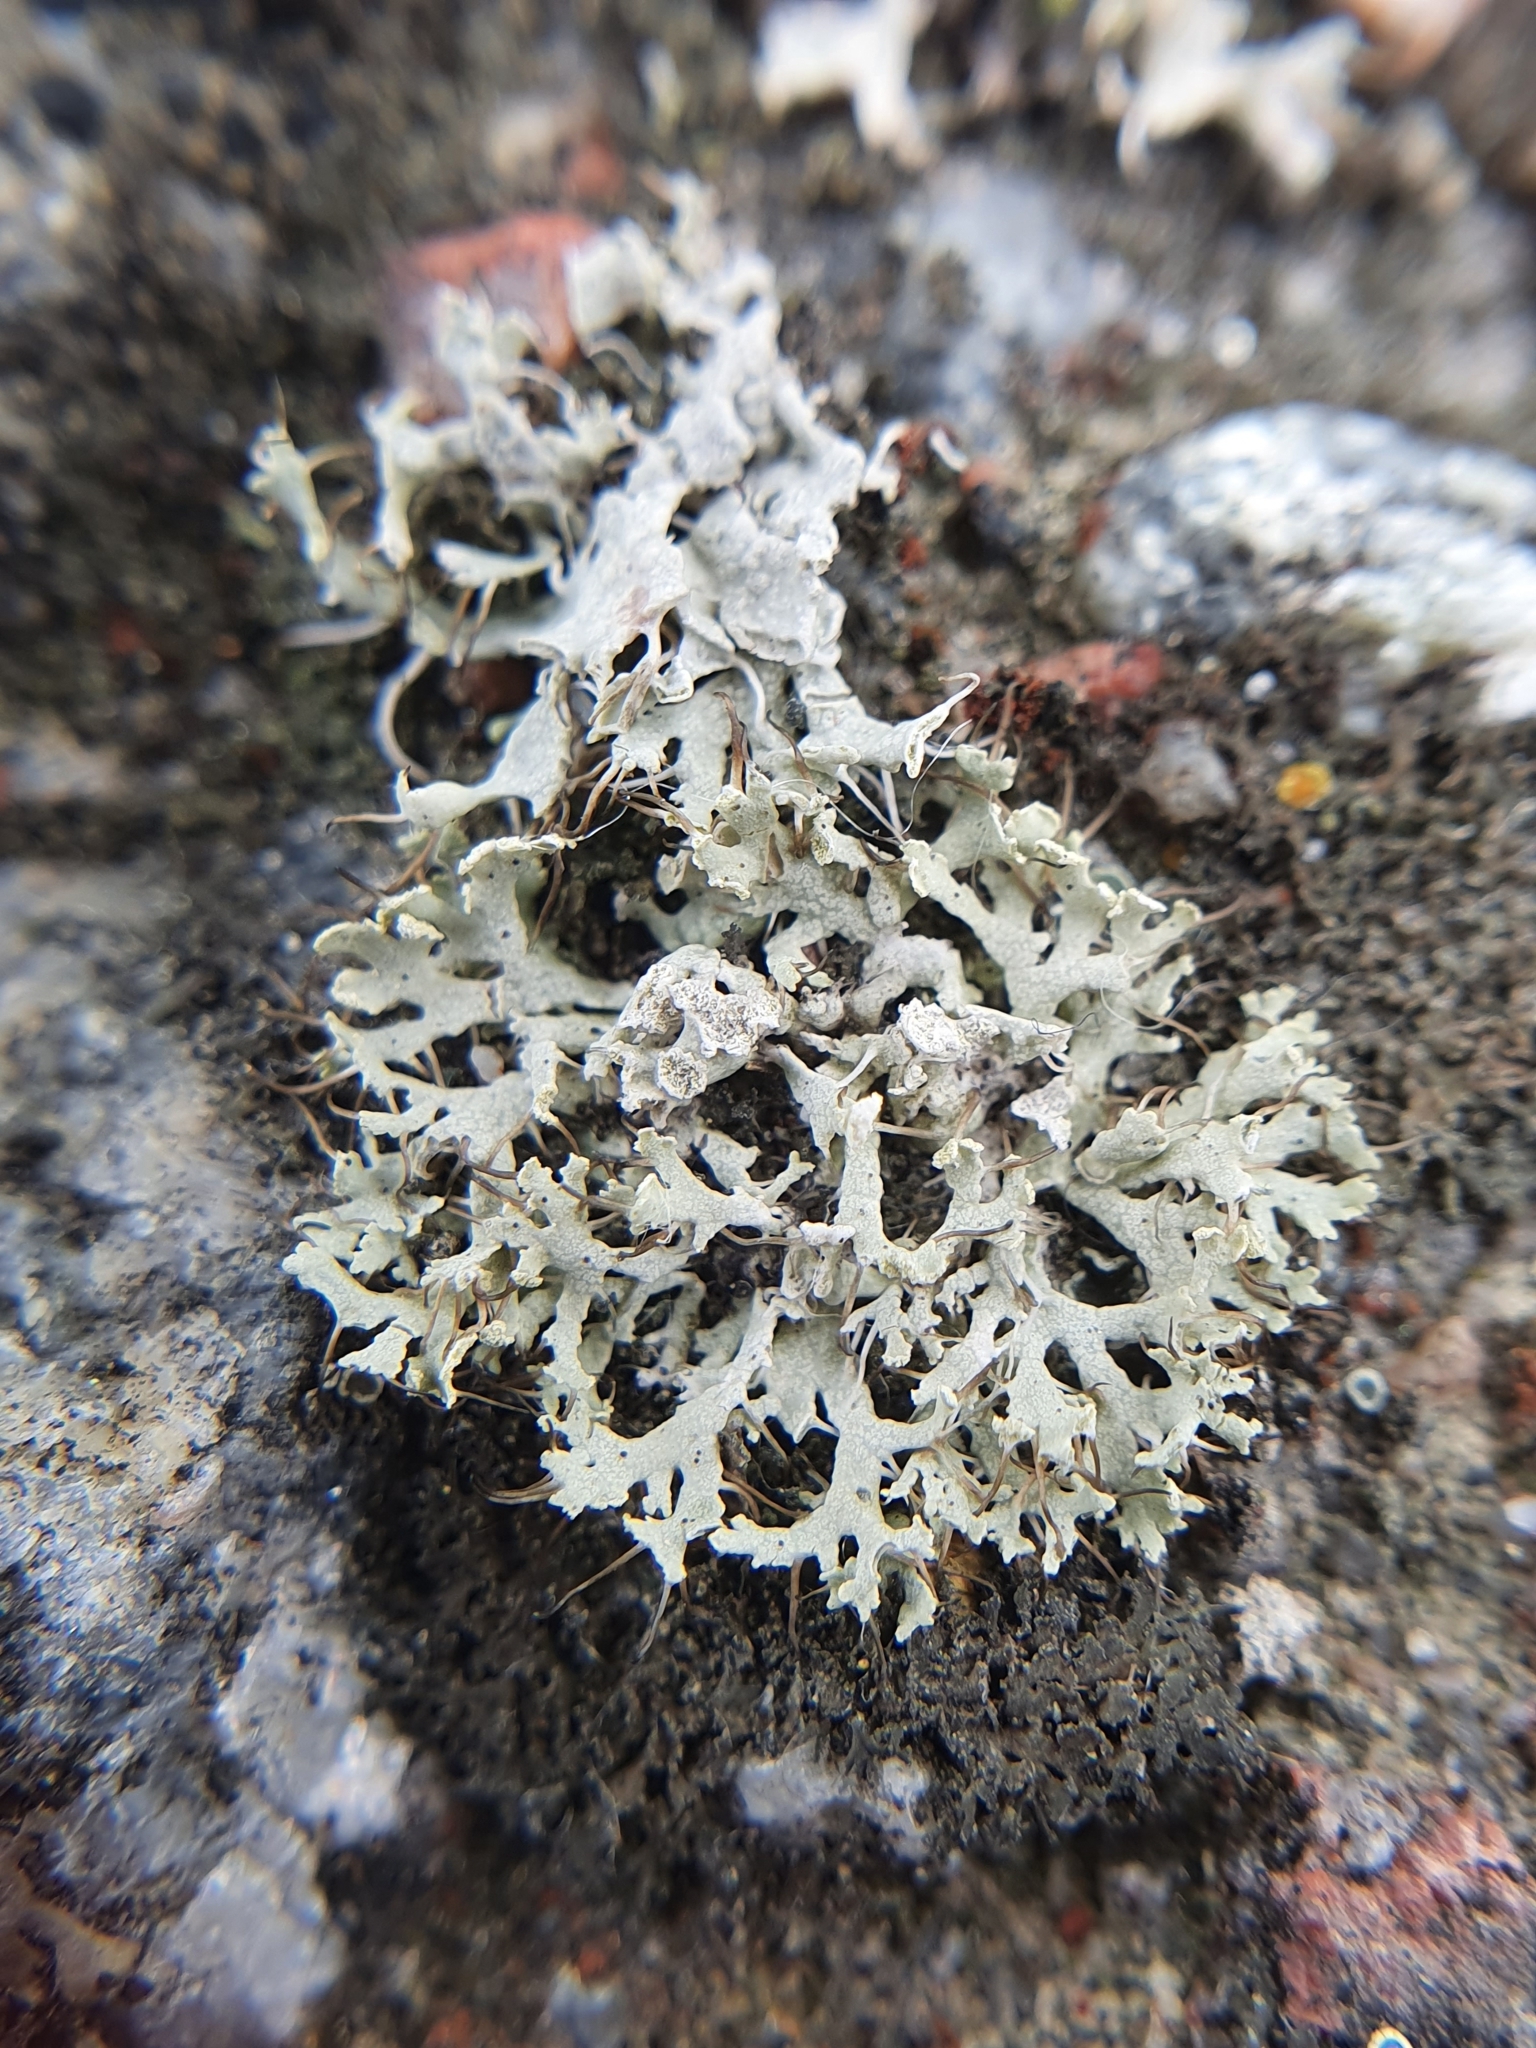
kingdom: Fungi
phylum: Ascomycota
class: Lecanoromycetes
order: Caliciales
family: Physciaceae
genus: Physcia
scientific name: Physcia tenella
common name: Fringed rosette lichen
